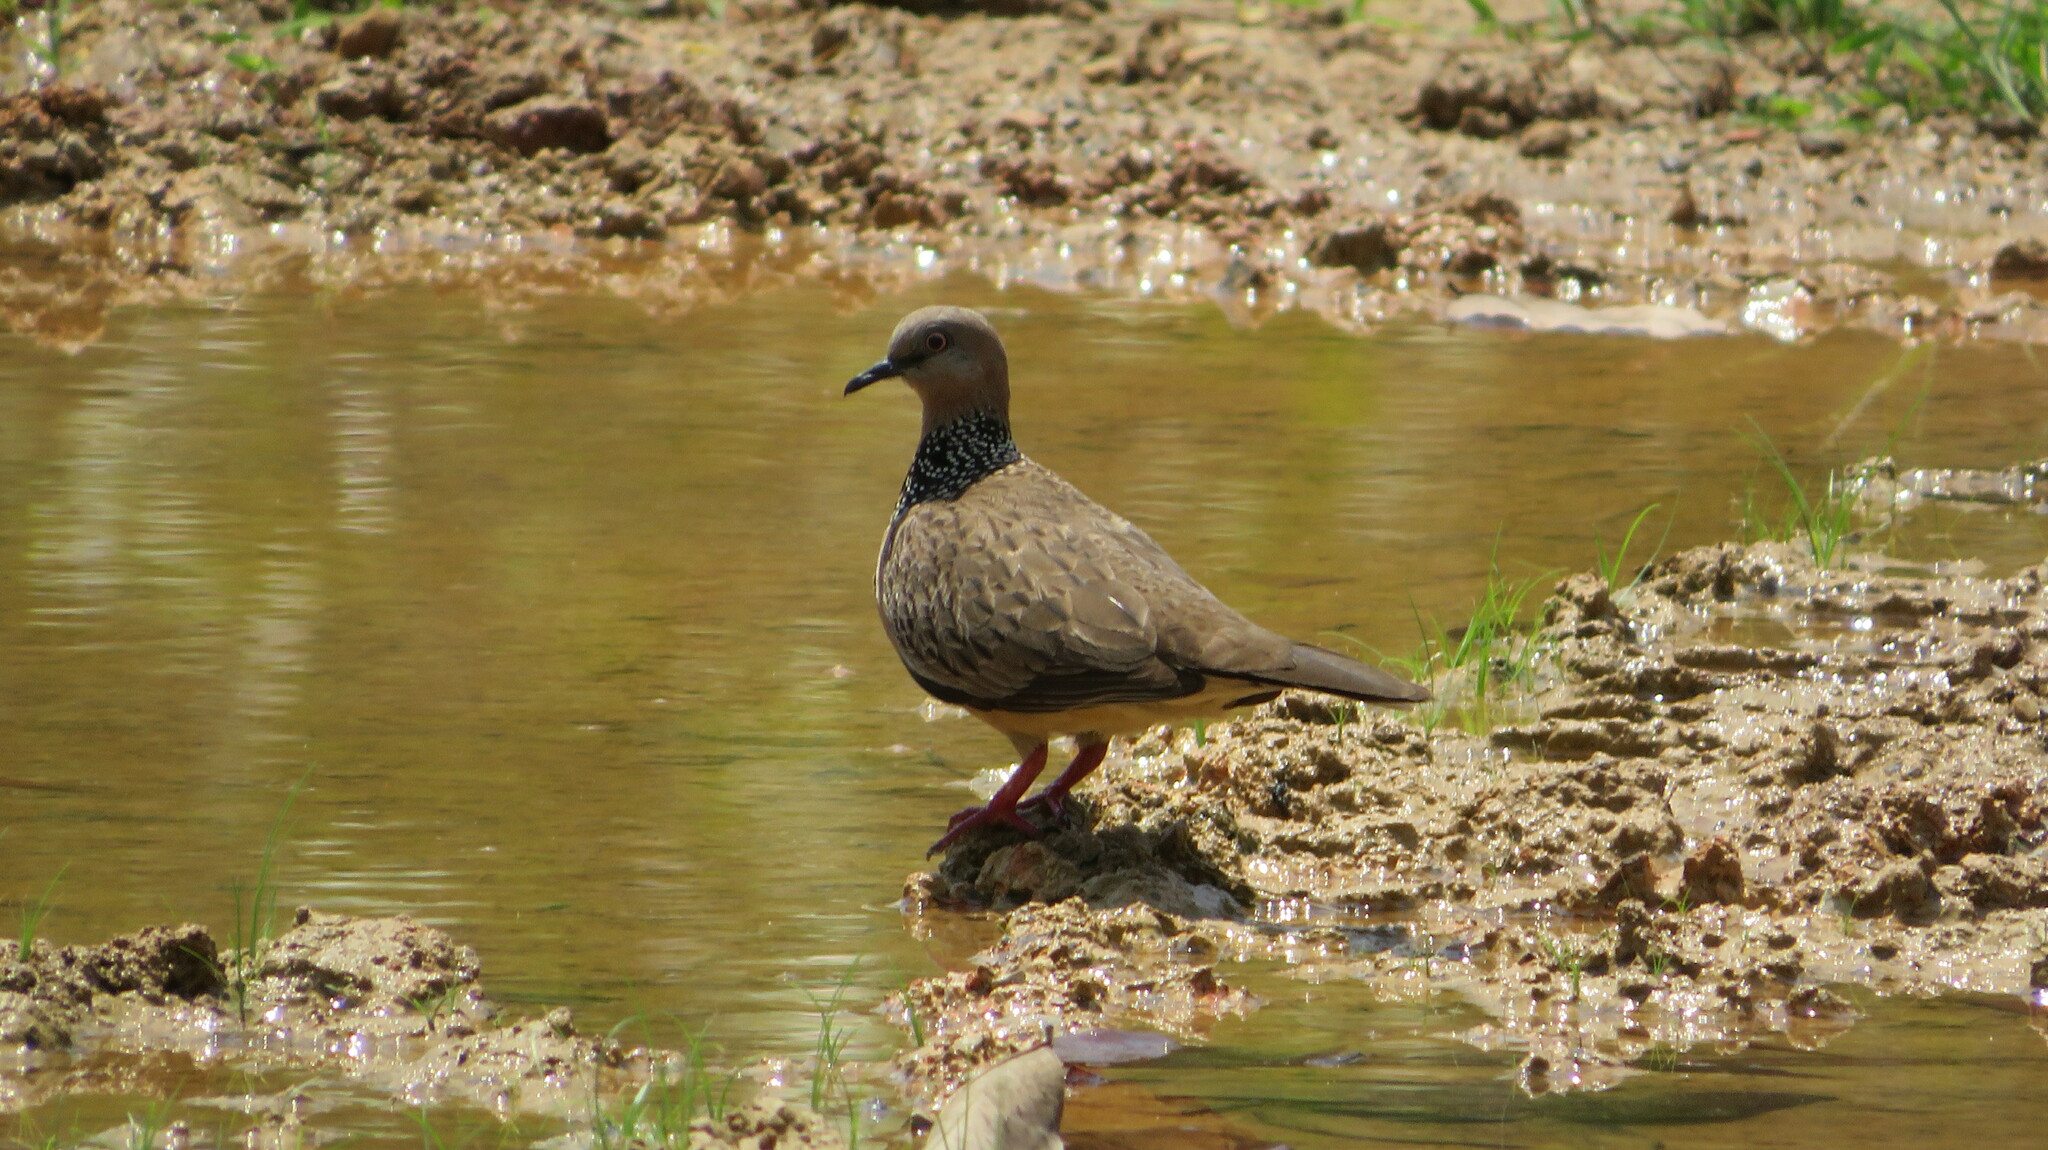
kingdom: Animalia
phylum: Chordata
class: Aves
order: Columbiformes
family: Columbidae
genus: Spilopelia
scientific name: Spilopelia chinensis
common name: Spotted dove
